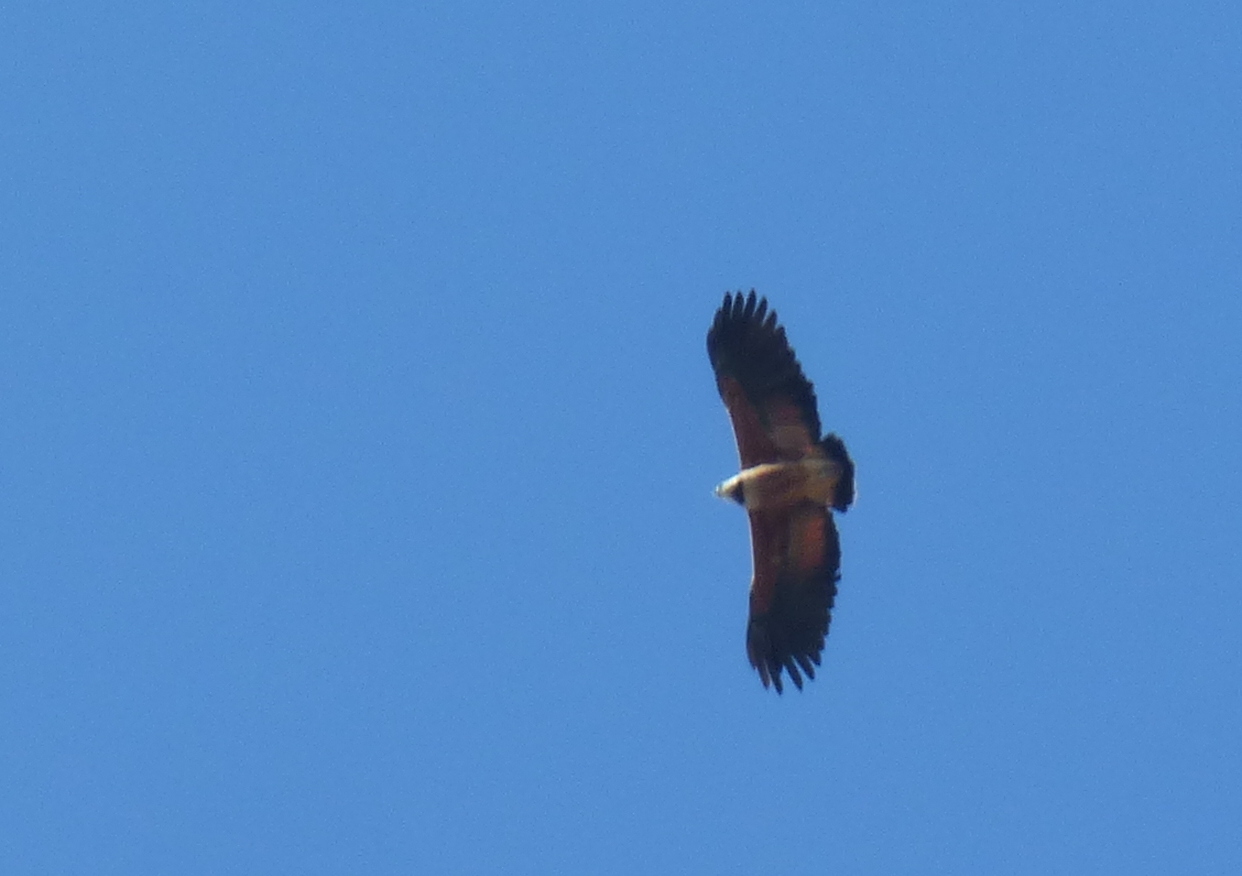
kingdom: Animalia
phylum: Chordata
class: Aves
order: Accipitriformes
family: Accipitridae
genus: Busarellus
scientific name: Busarellus nigricollis
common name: Black-collared hawk
